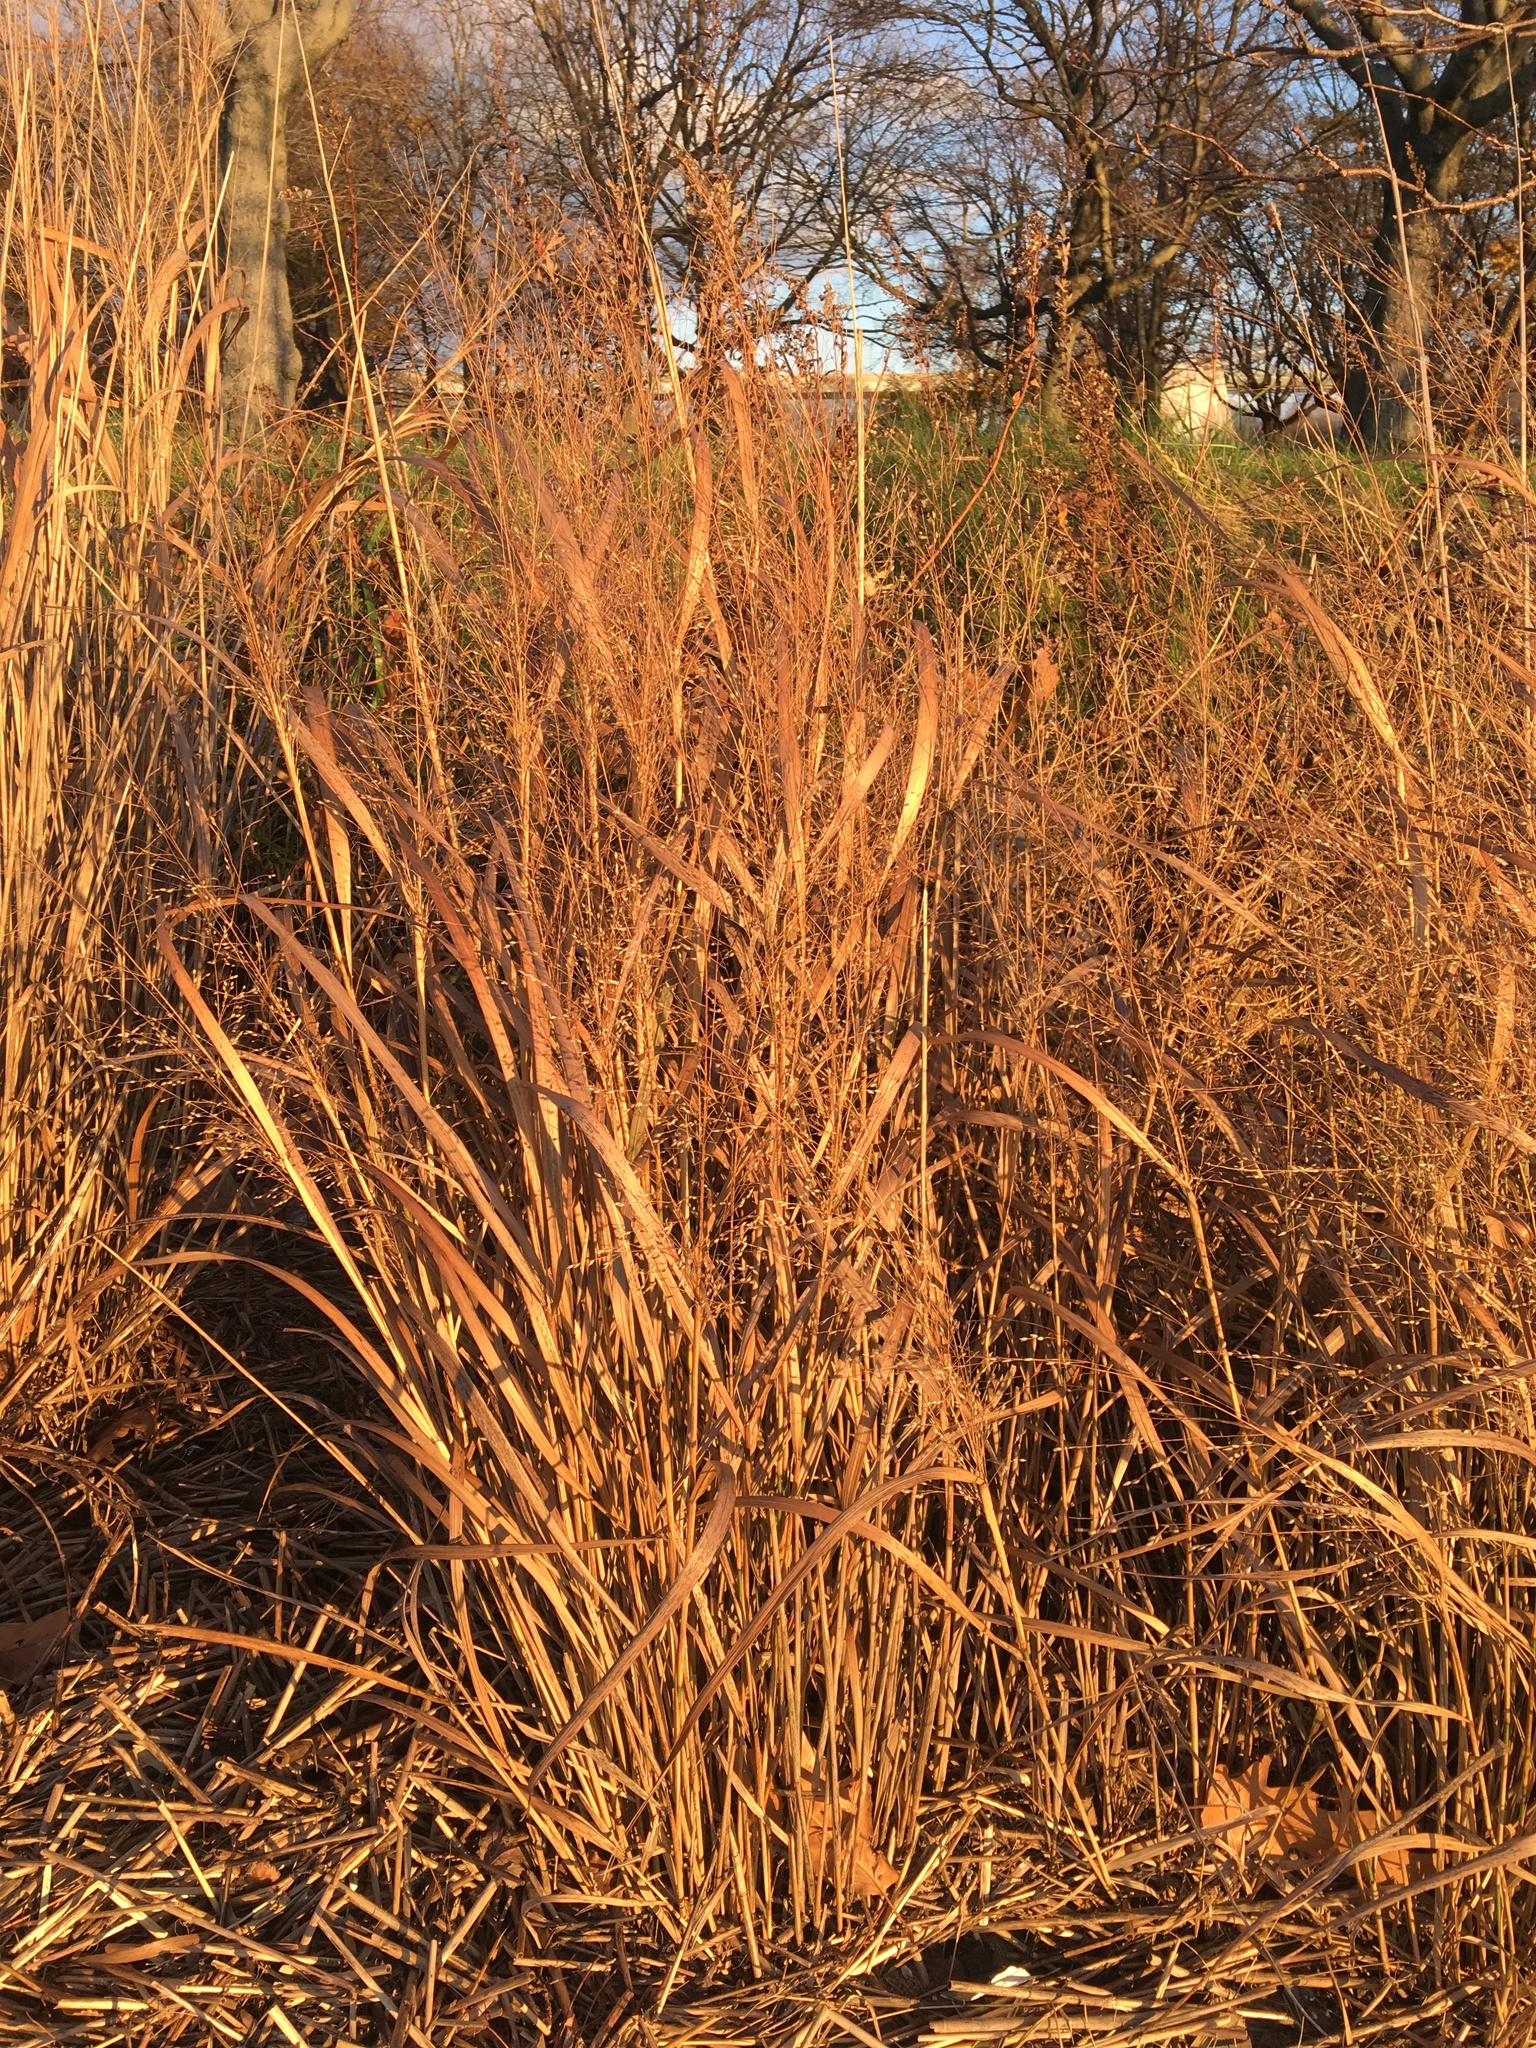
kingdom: Plantae
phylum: Tracheophyta
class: Liliopsida
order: Poales
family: Poaceae
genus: Panicum
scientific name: Panicum virgatum
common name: Switchgrass
